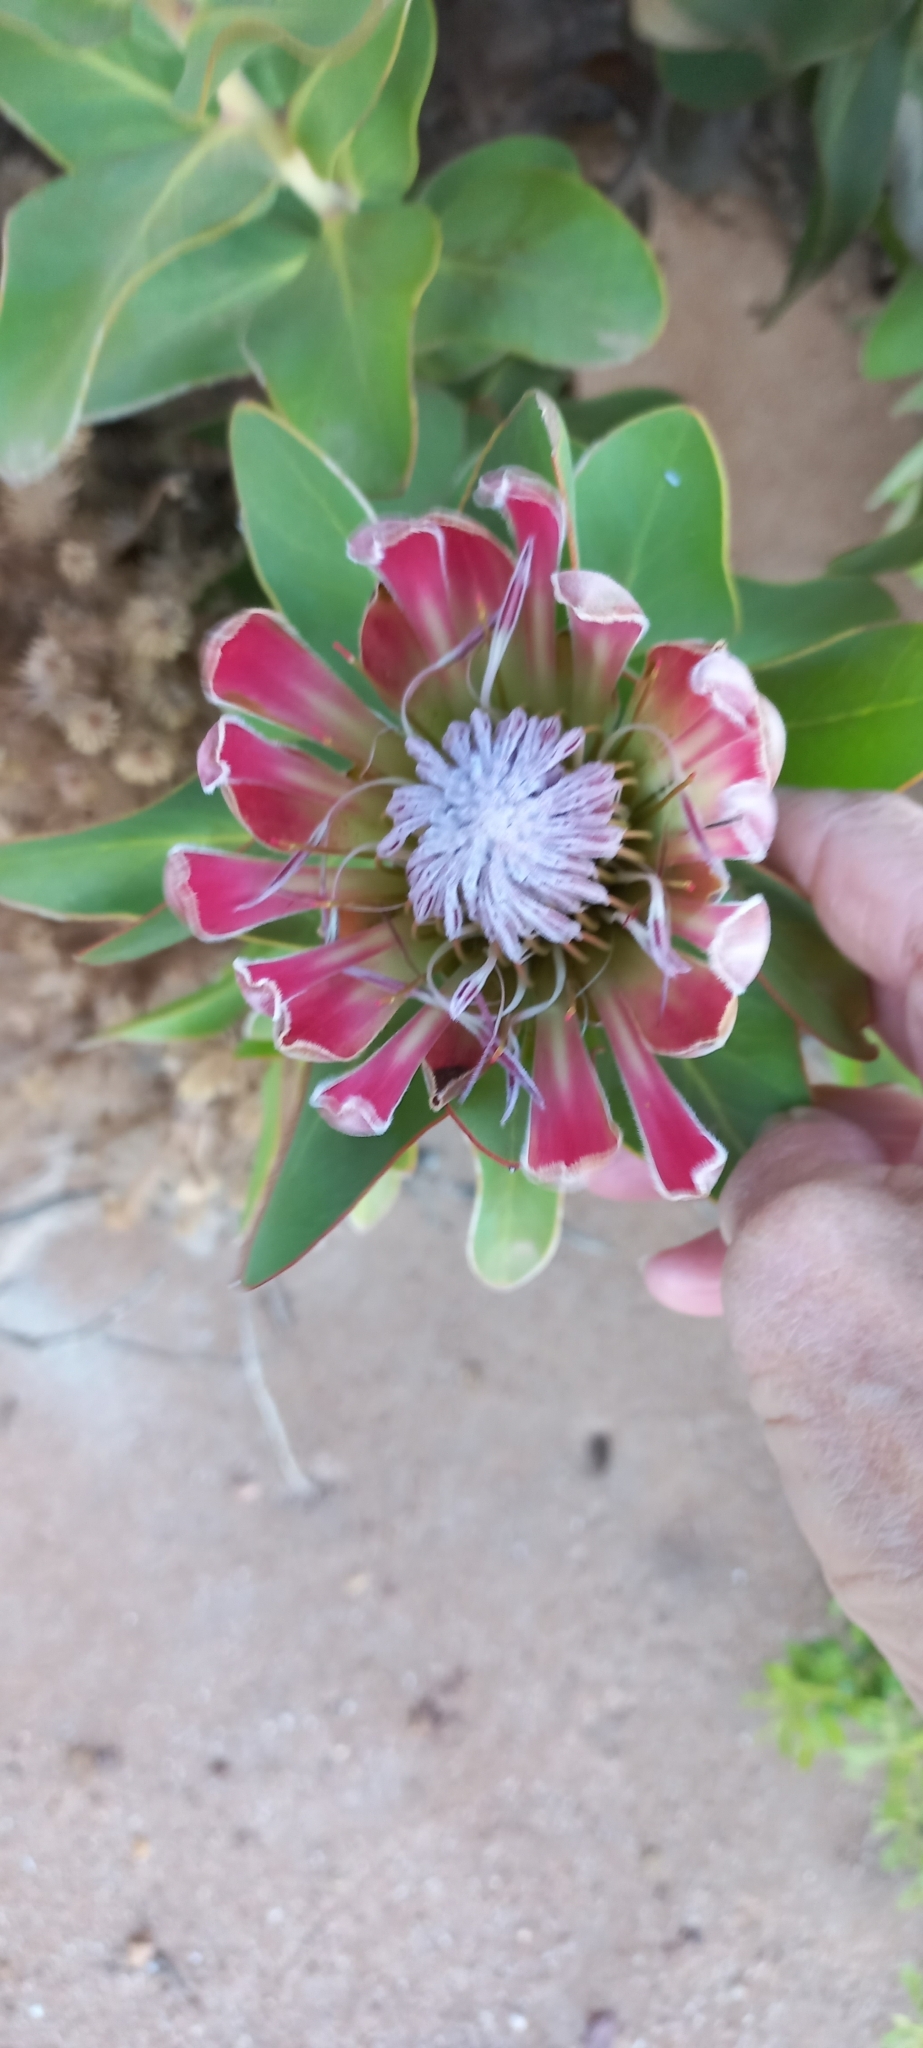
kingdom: Plantae
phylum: Tracheophyta
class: Magnoliopsida
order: Proteales
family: Proteaceae
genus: Protea
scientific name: Protea compacta
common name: Bot river protea
